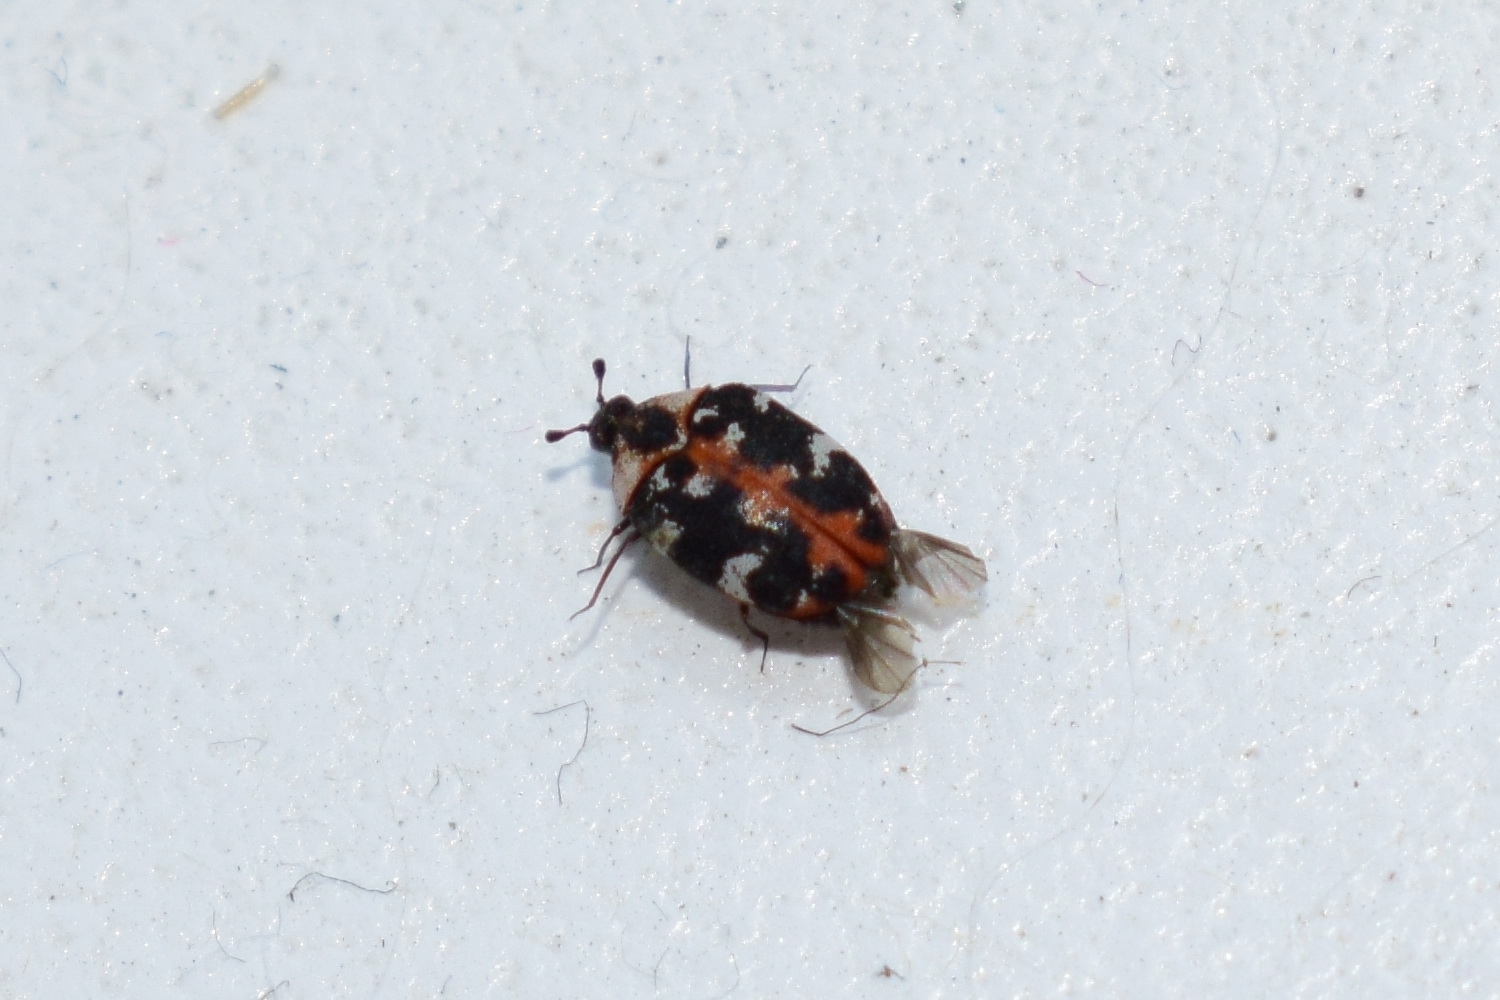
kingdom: Animalia
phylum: Arthropoda
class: Insecta
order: Coleoptera
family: Dermestidae
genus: Anthrenus
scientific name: Anthrenus scrophulariae
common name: Buffalo carpet beetle
